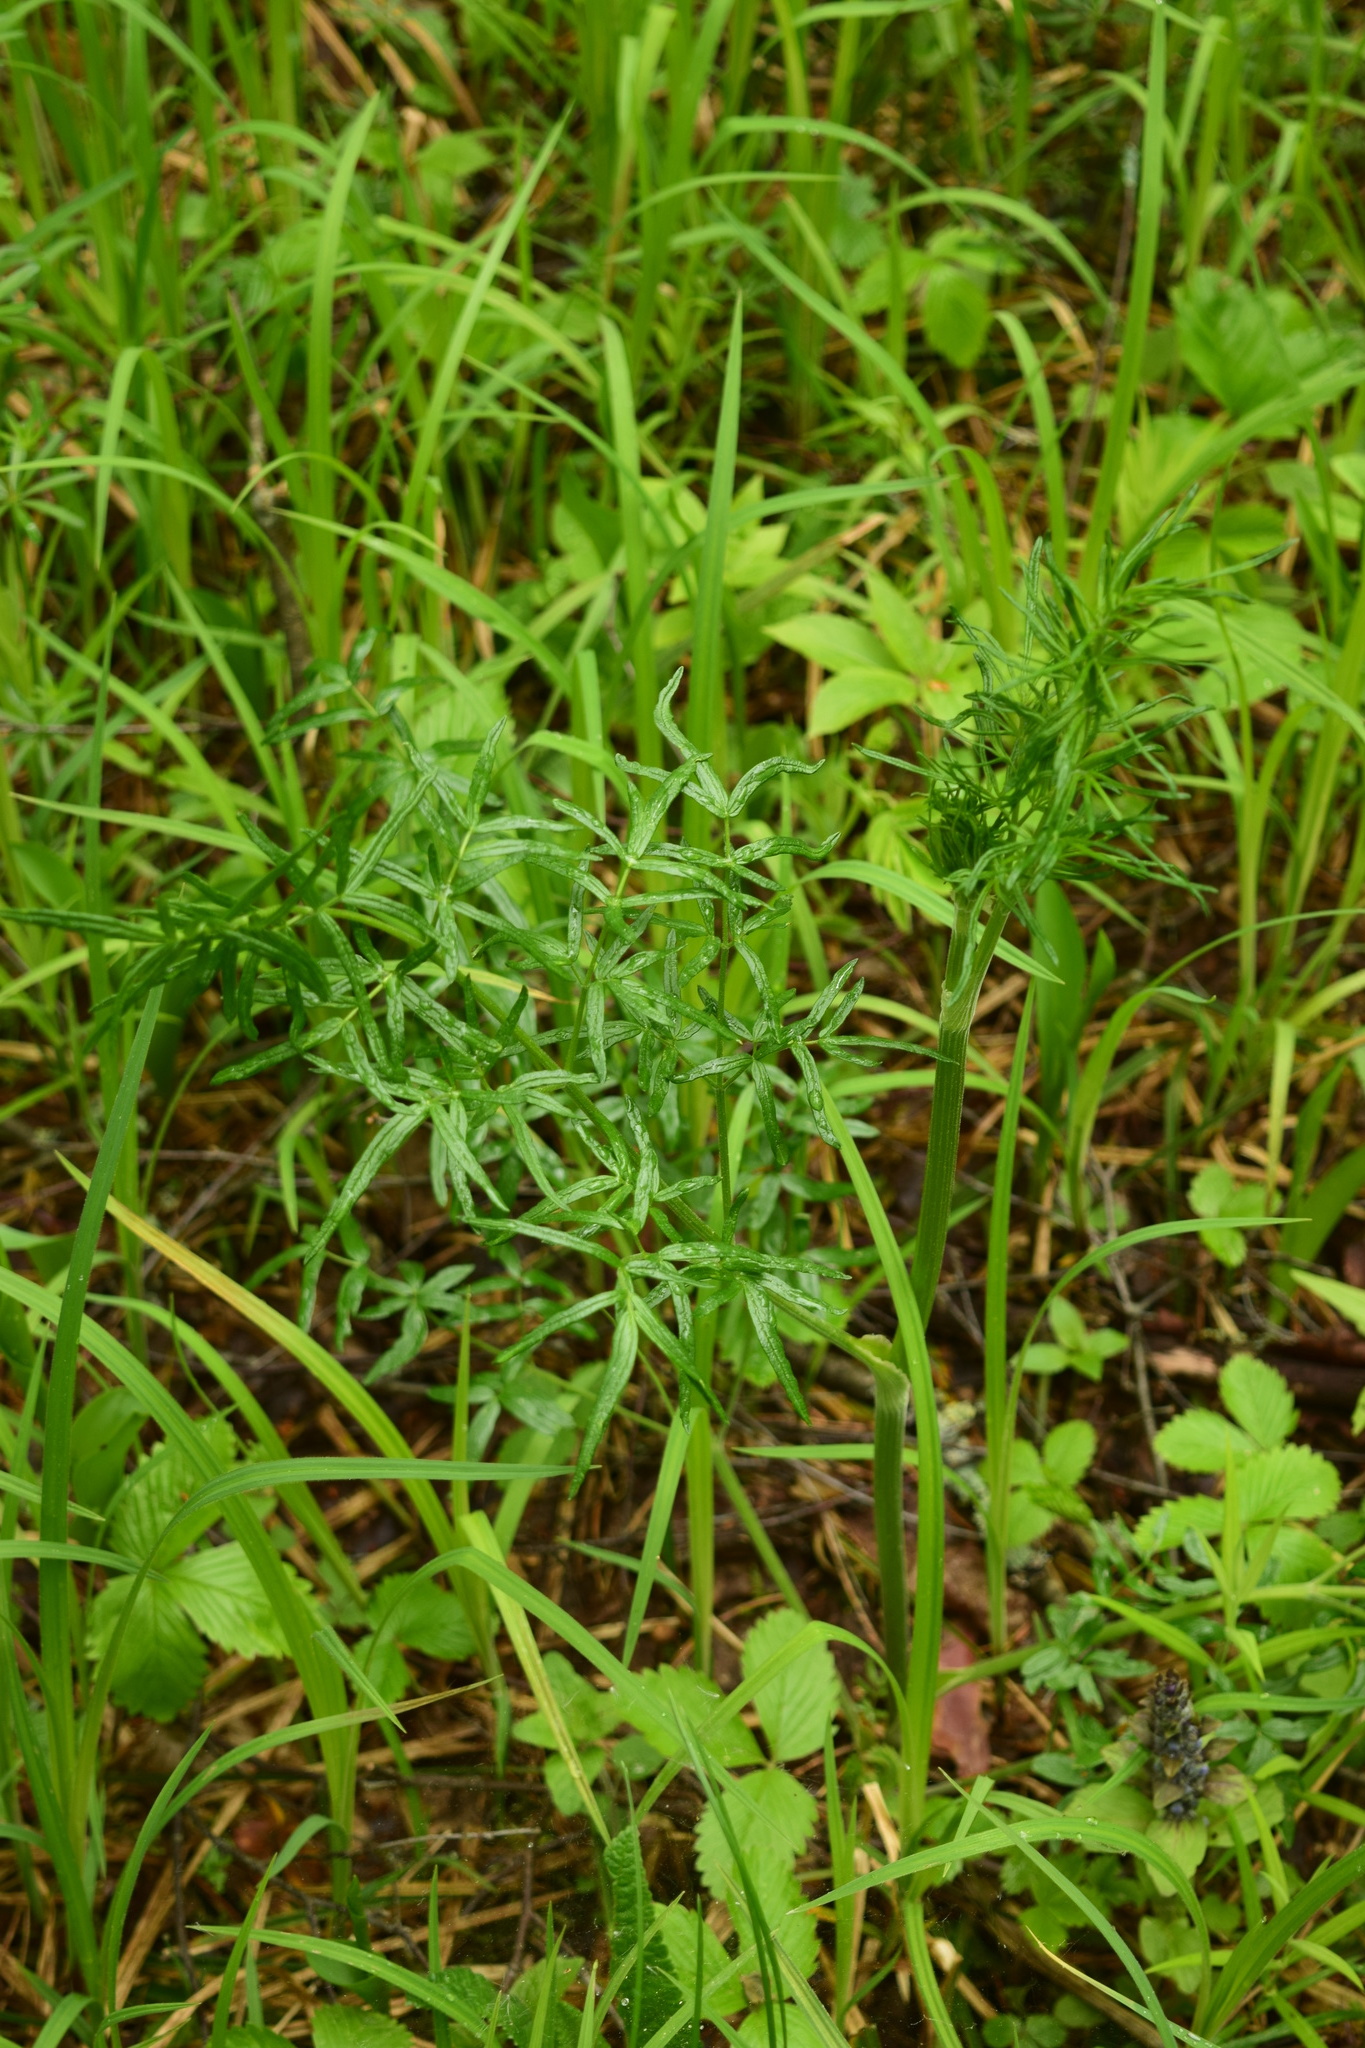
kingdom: Plantae
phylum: Tracheophyta
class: Magnoliopsida
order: Ranunculales
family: Ranunculaceae
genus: Thalictrum
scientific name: Thalictrum lucidum
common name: Shining meadow-rue
